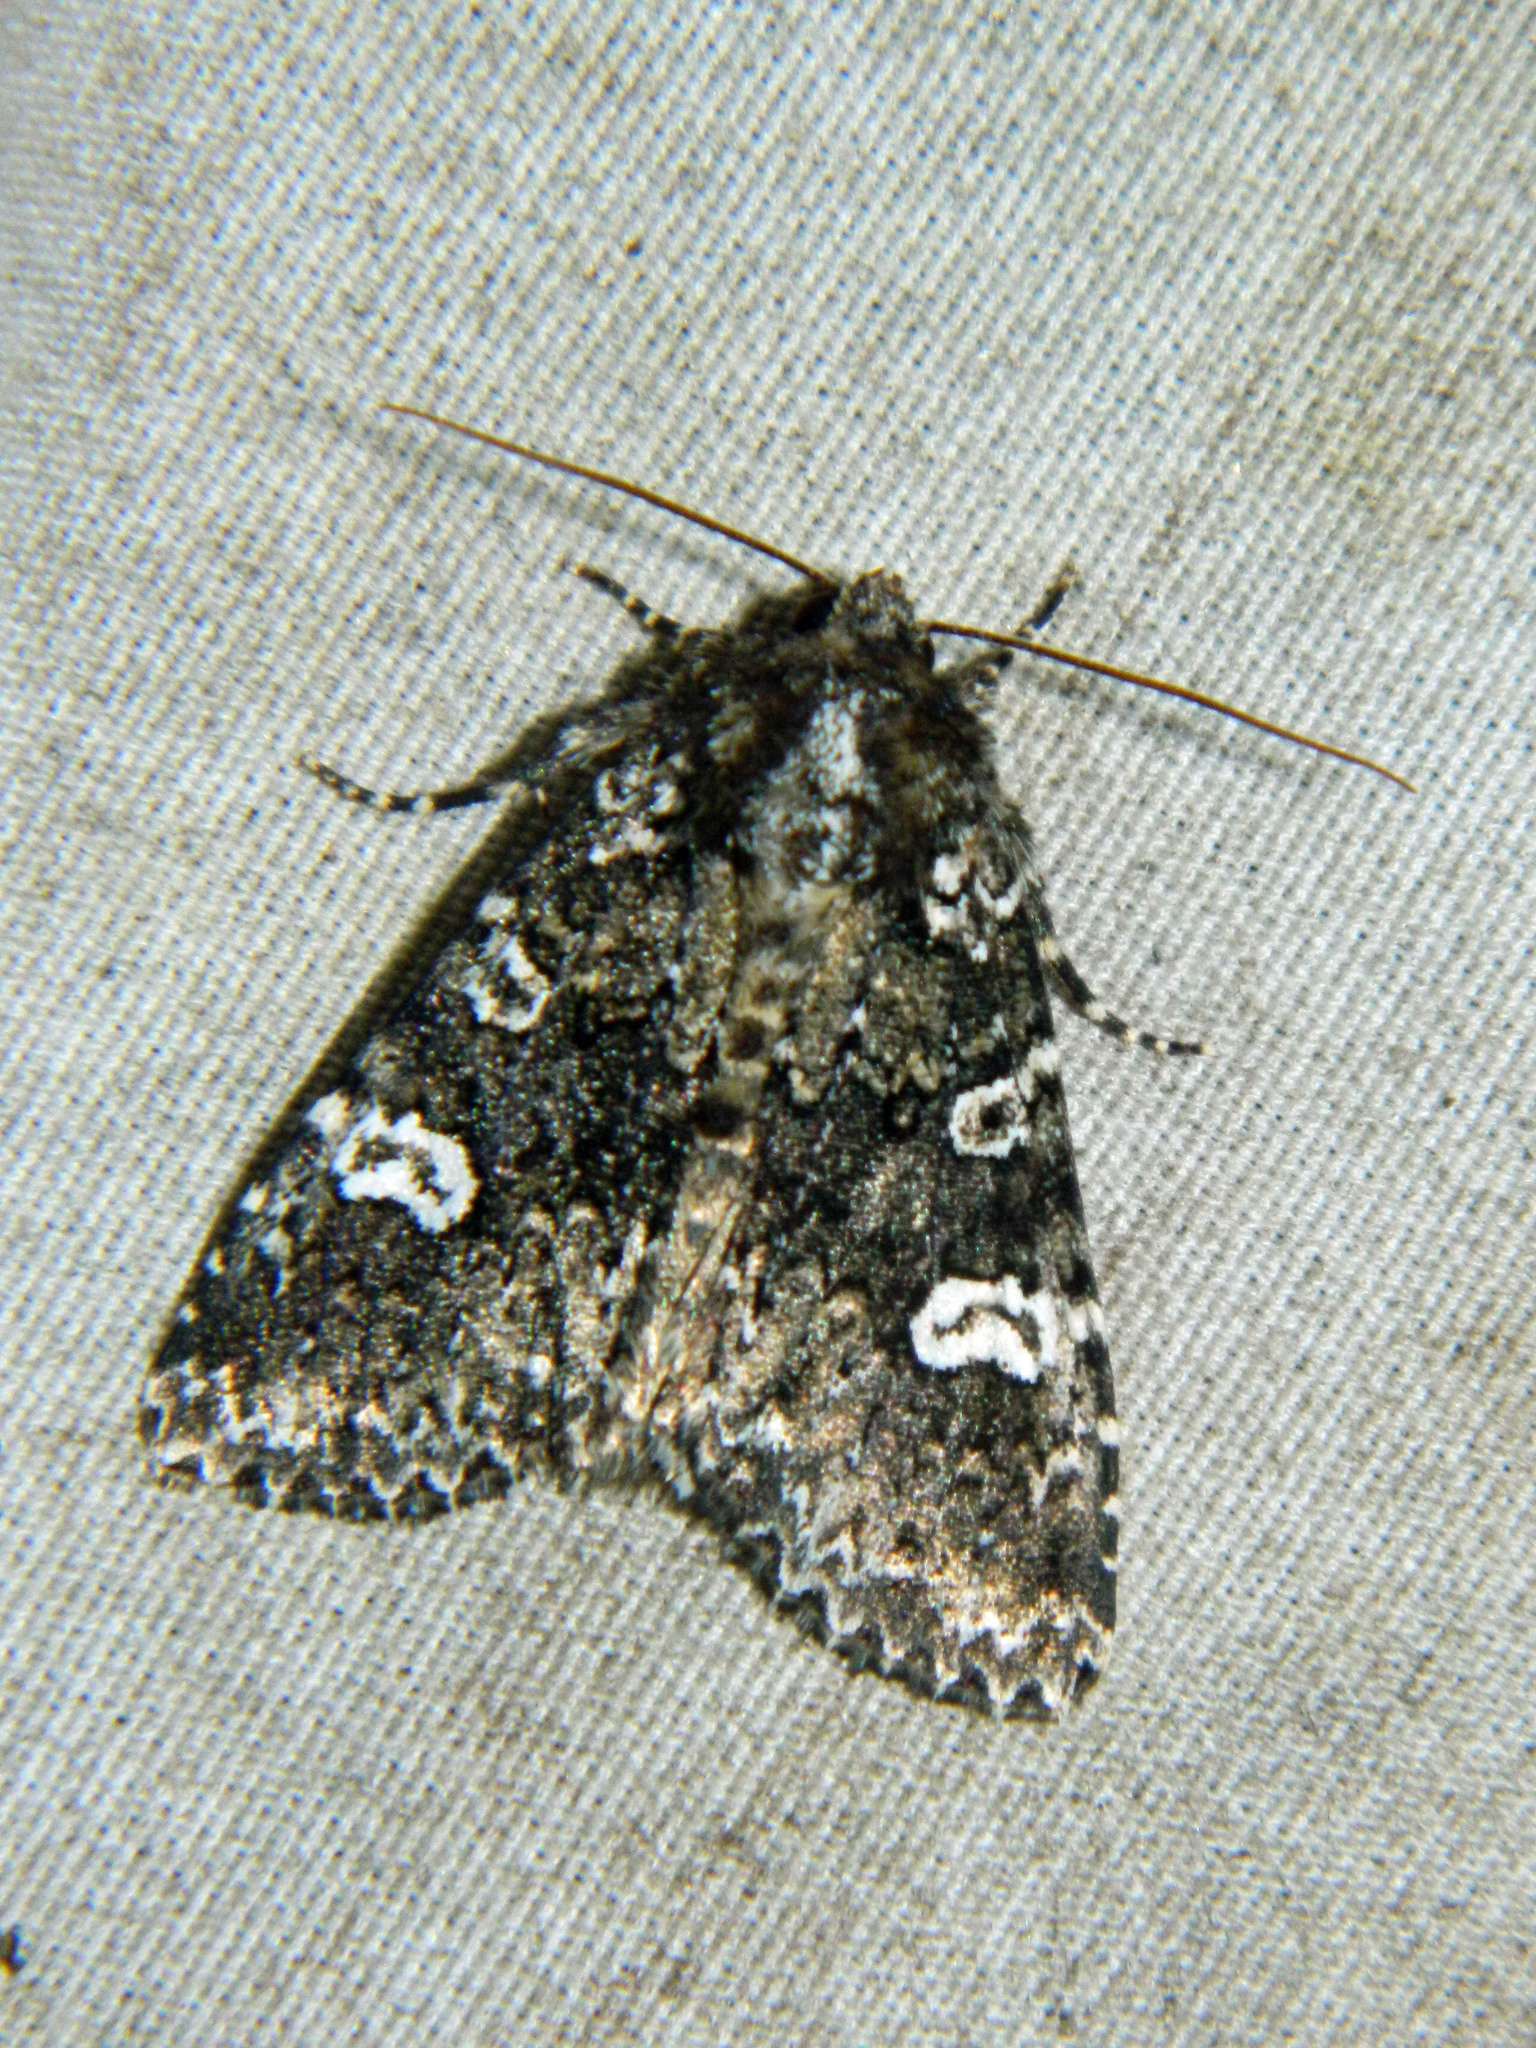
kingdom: Animalia
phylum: Arthropoda
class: Insecta
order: Lepidoptera
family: Noctuidae
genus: Melanchra
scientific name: Melanchra adjuncta
